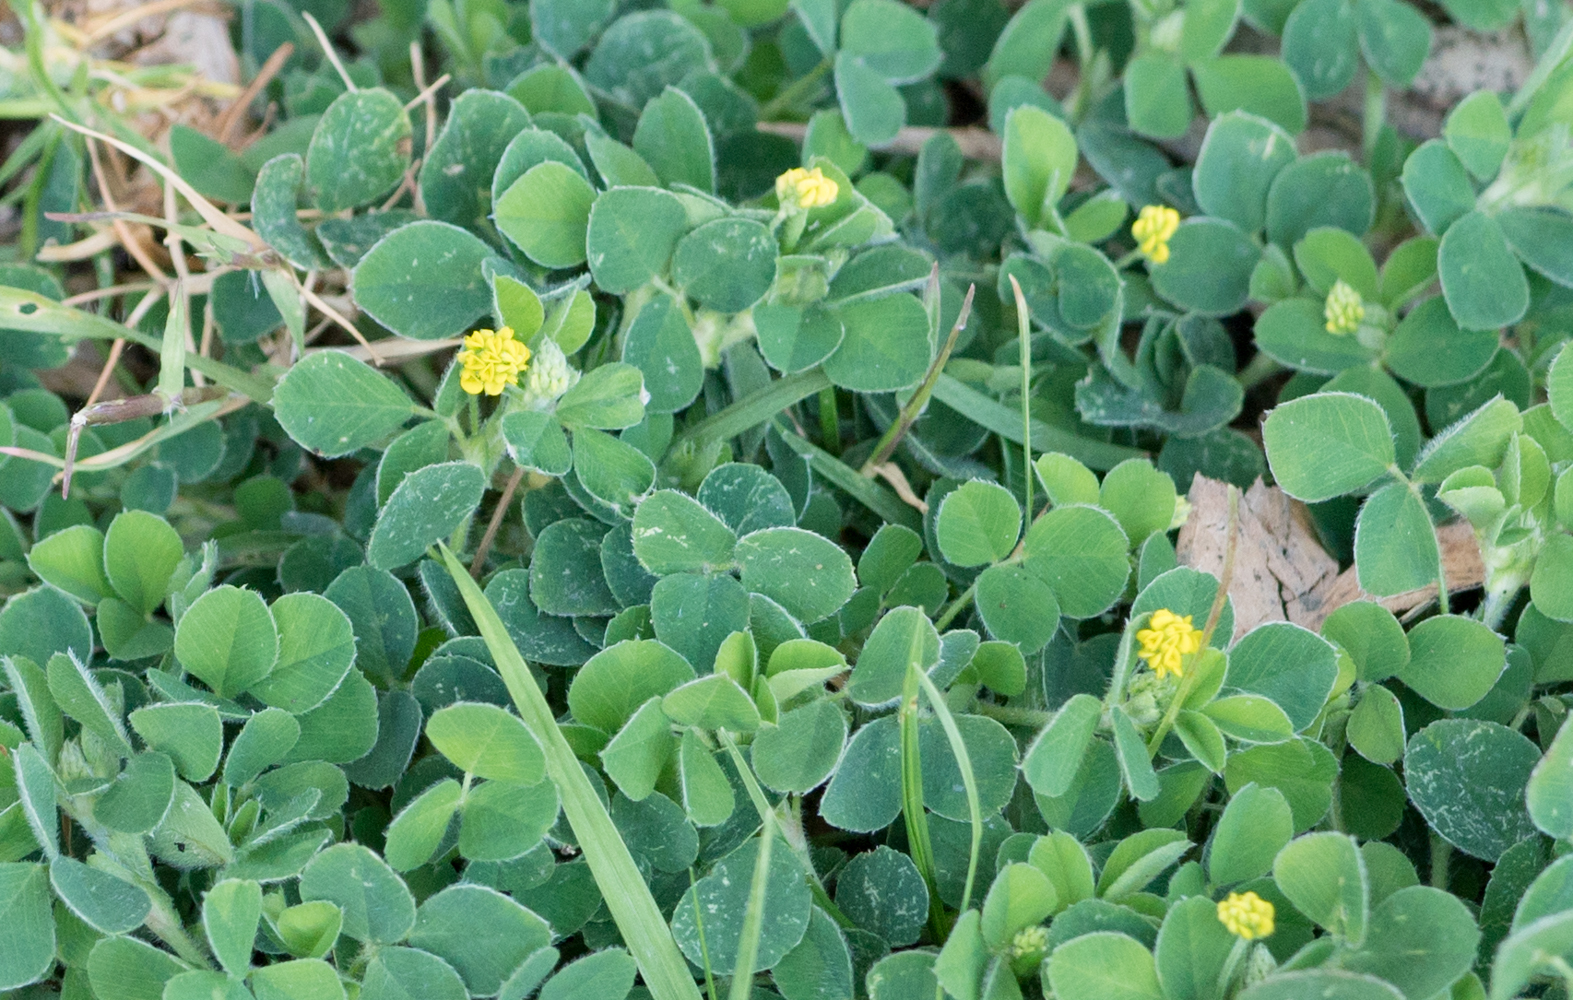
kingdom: Plantae
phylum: Tracheophyta
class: Magnoliopsida
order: Fabales
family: Fabaceae
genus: Medicago
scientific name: Medicago lupulina
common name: Black medick
